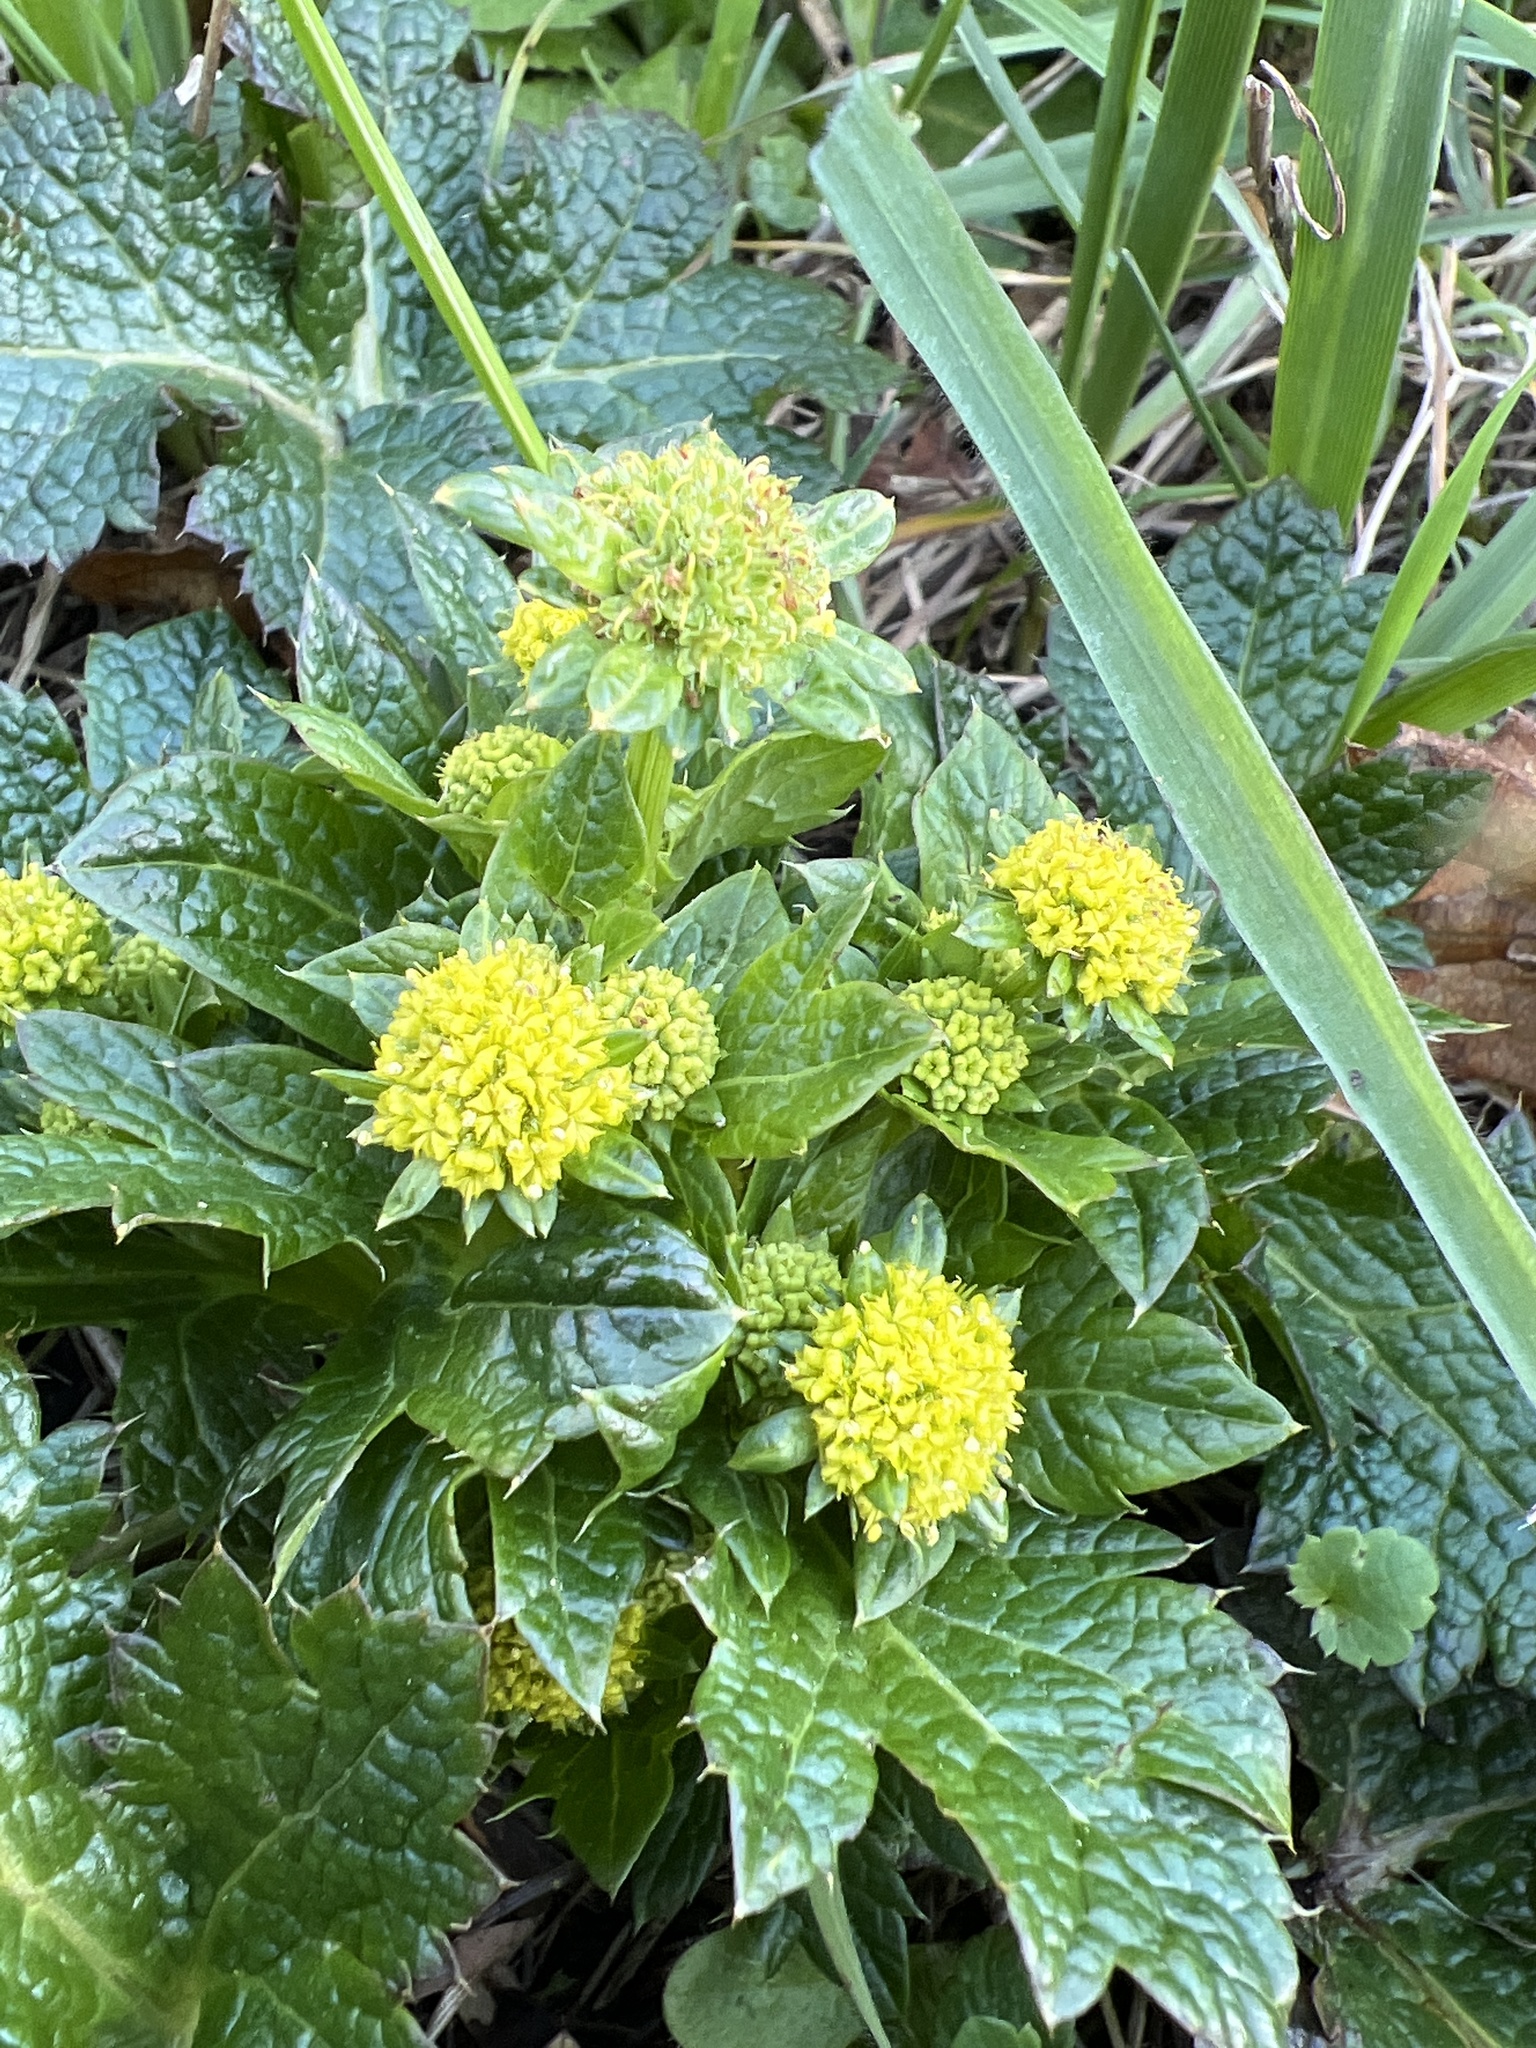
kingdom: Plantae
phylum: Tracheophyta
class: Magnoliopsida
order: Apiales
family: Apiaceae
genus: Sanicula
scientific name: Sanicula crassicaulis
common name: Western snakeroot
